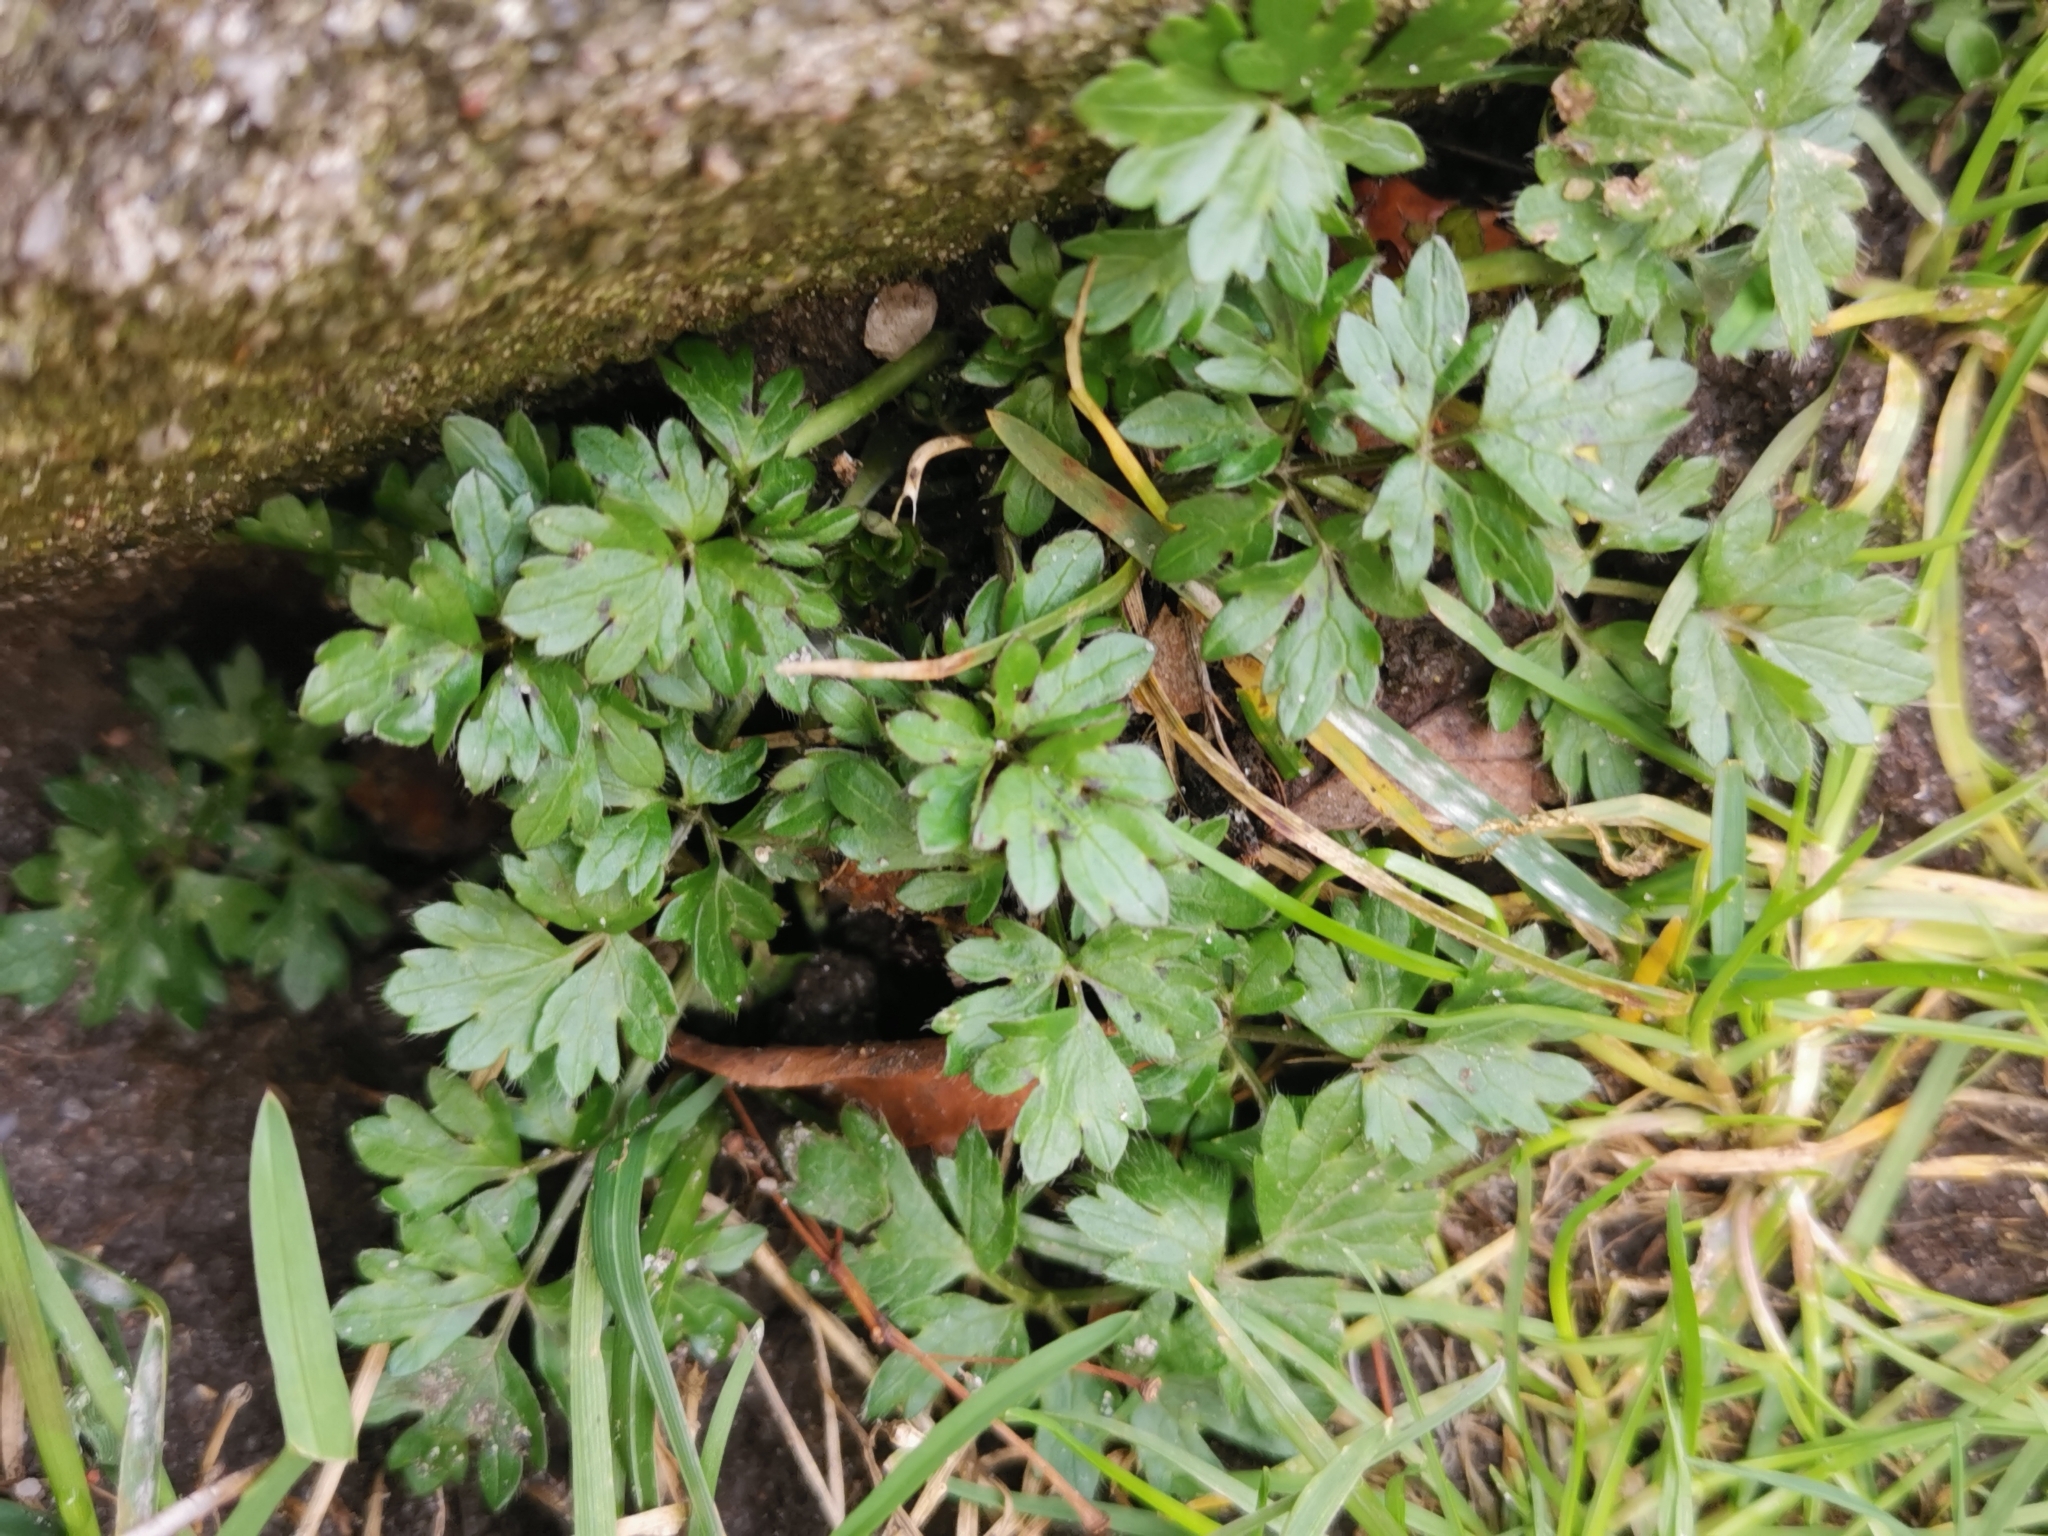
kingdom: Plantae
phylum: Tracheophyta
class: Magnoliopsida
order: Ranunculales
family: Ranunculaceae
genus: Ranunculus
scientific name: Ranunculus repens
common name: Creeping buttercup
